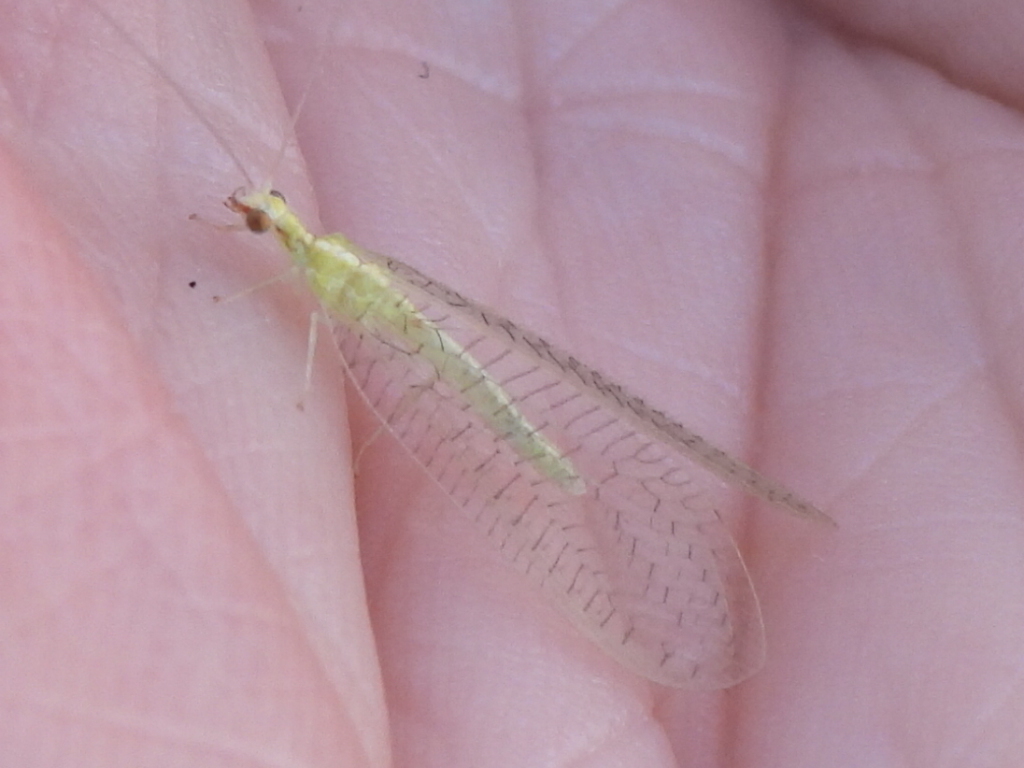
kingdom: Animalia
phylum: Arthropoda
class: Insecta
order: Neuroptera
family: Chrysopidae
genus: Chrysoperla
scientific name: Chrysoperla rufilabris
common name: Red-lipped green lacewing
